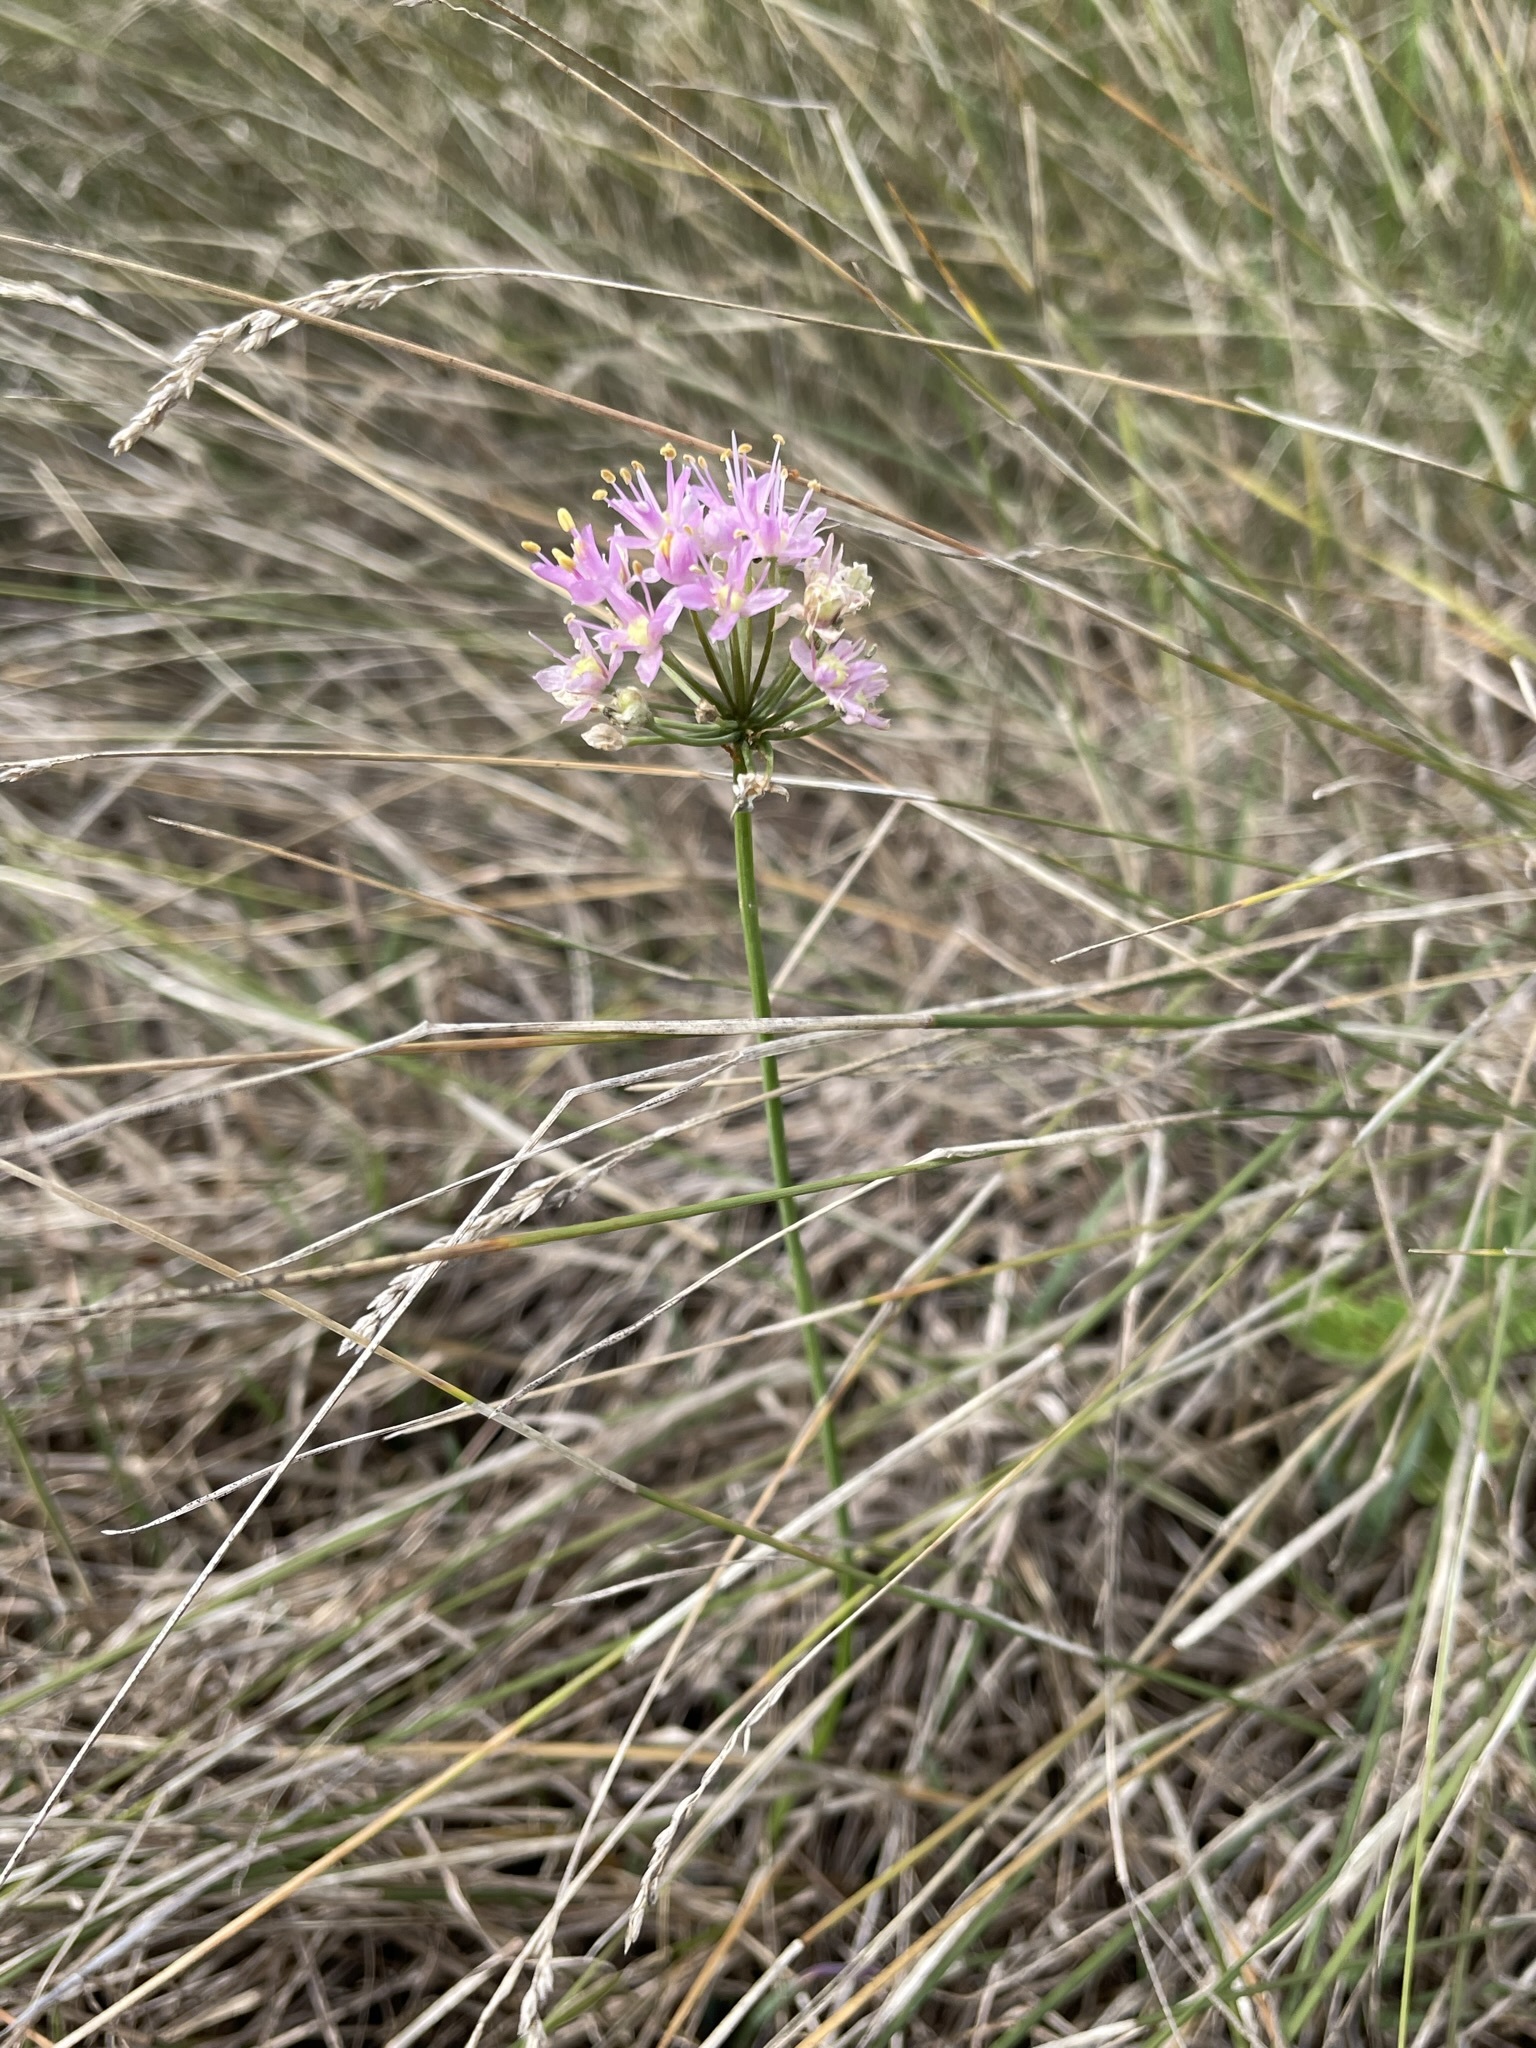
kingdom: Plantae
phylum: Tracheophyta
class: Liliopsida
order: Asparagales
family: Amaryllidaceae
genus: Allium
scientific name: Allium stellatum
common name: Autumn onion
